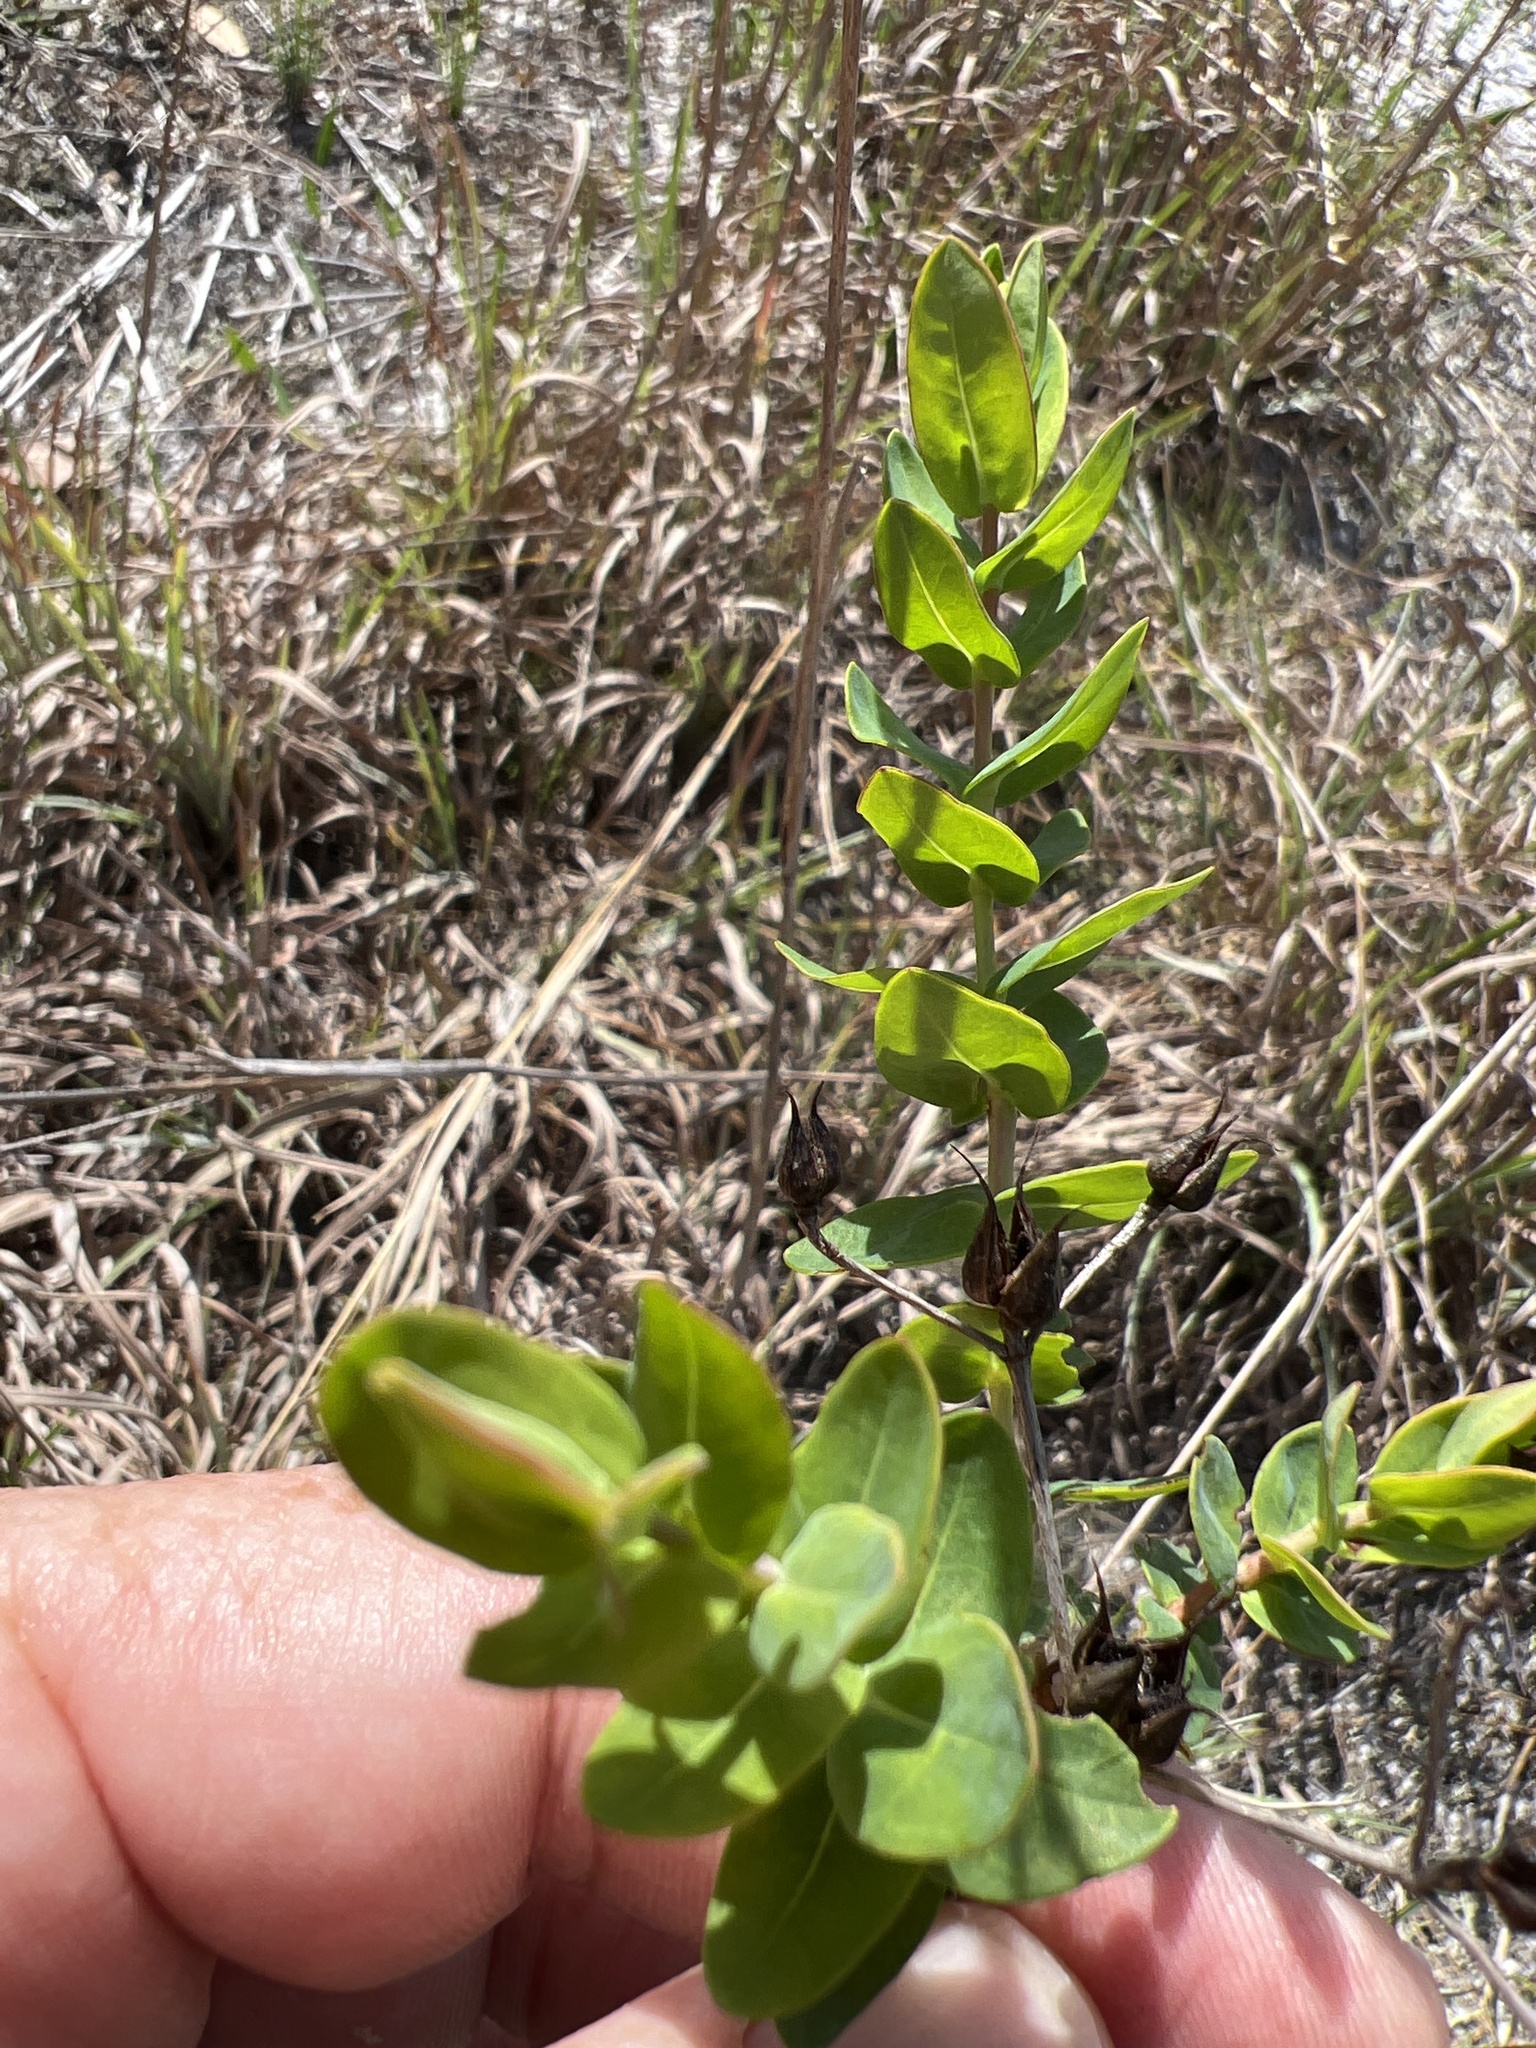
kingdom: Plantae
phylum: Tracheophyta
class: Magnoliopsida
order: Malpighiales
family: Hypericaceae
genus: Hypericum
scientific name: Hypericum myrtifolium
